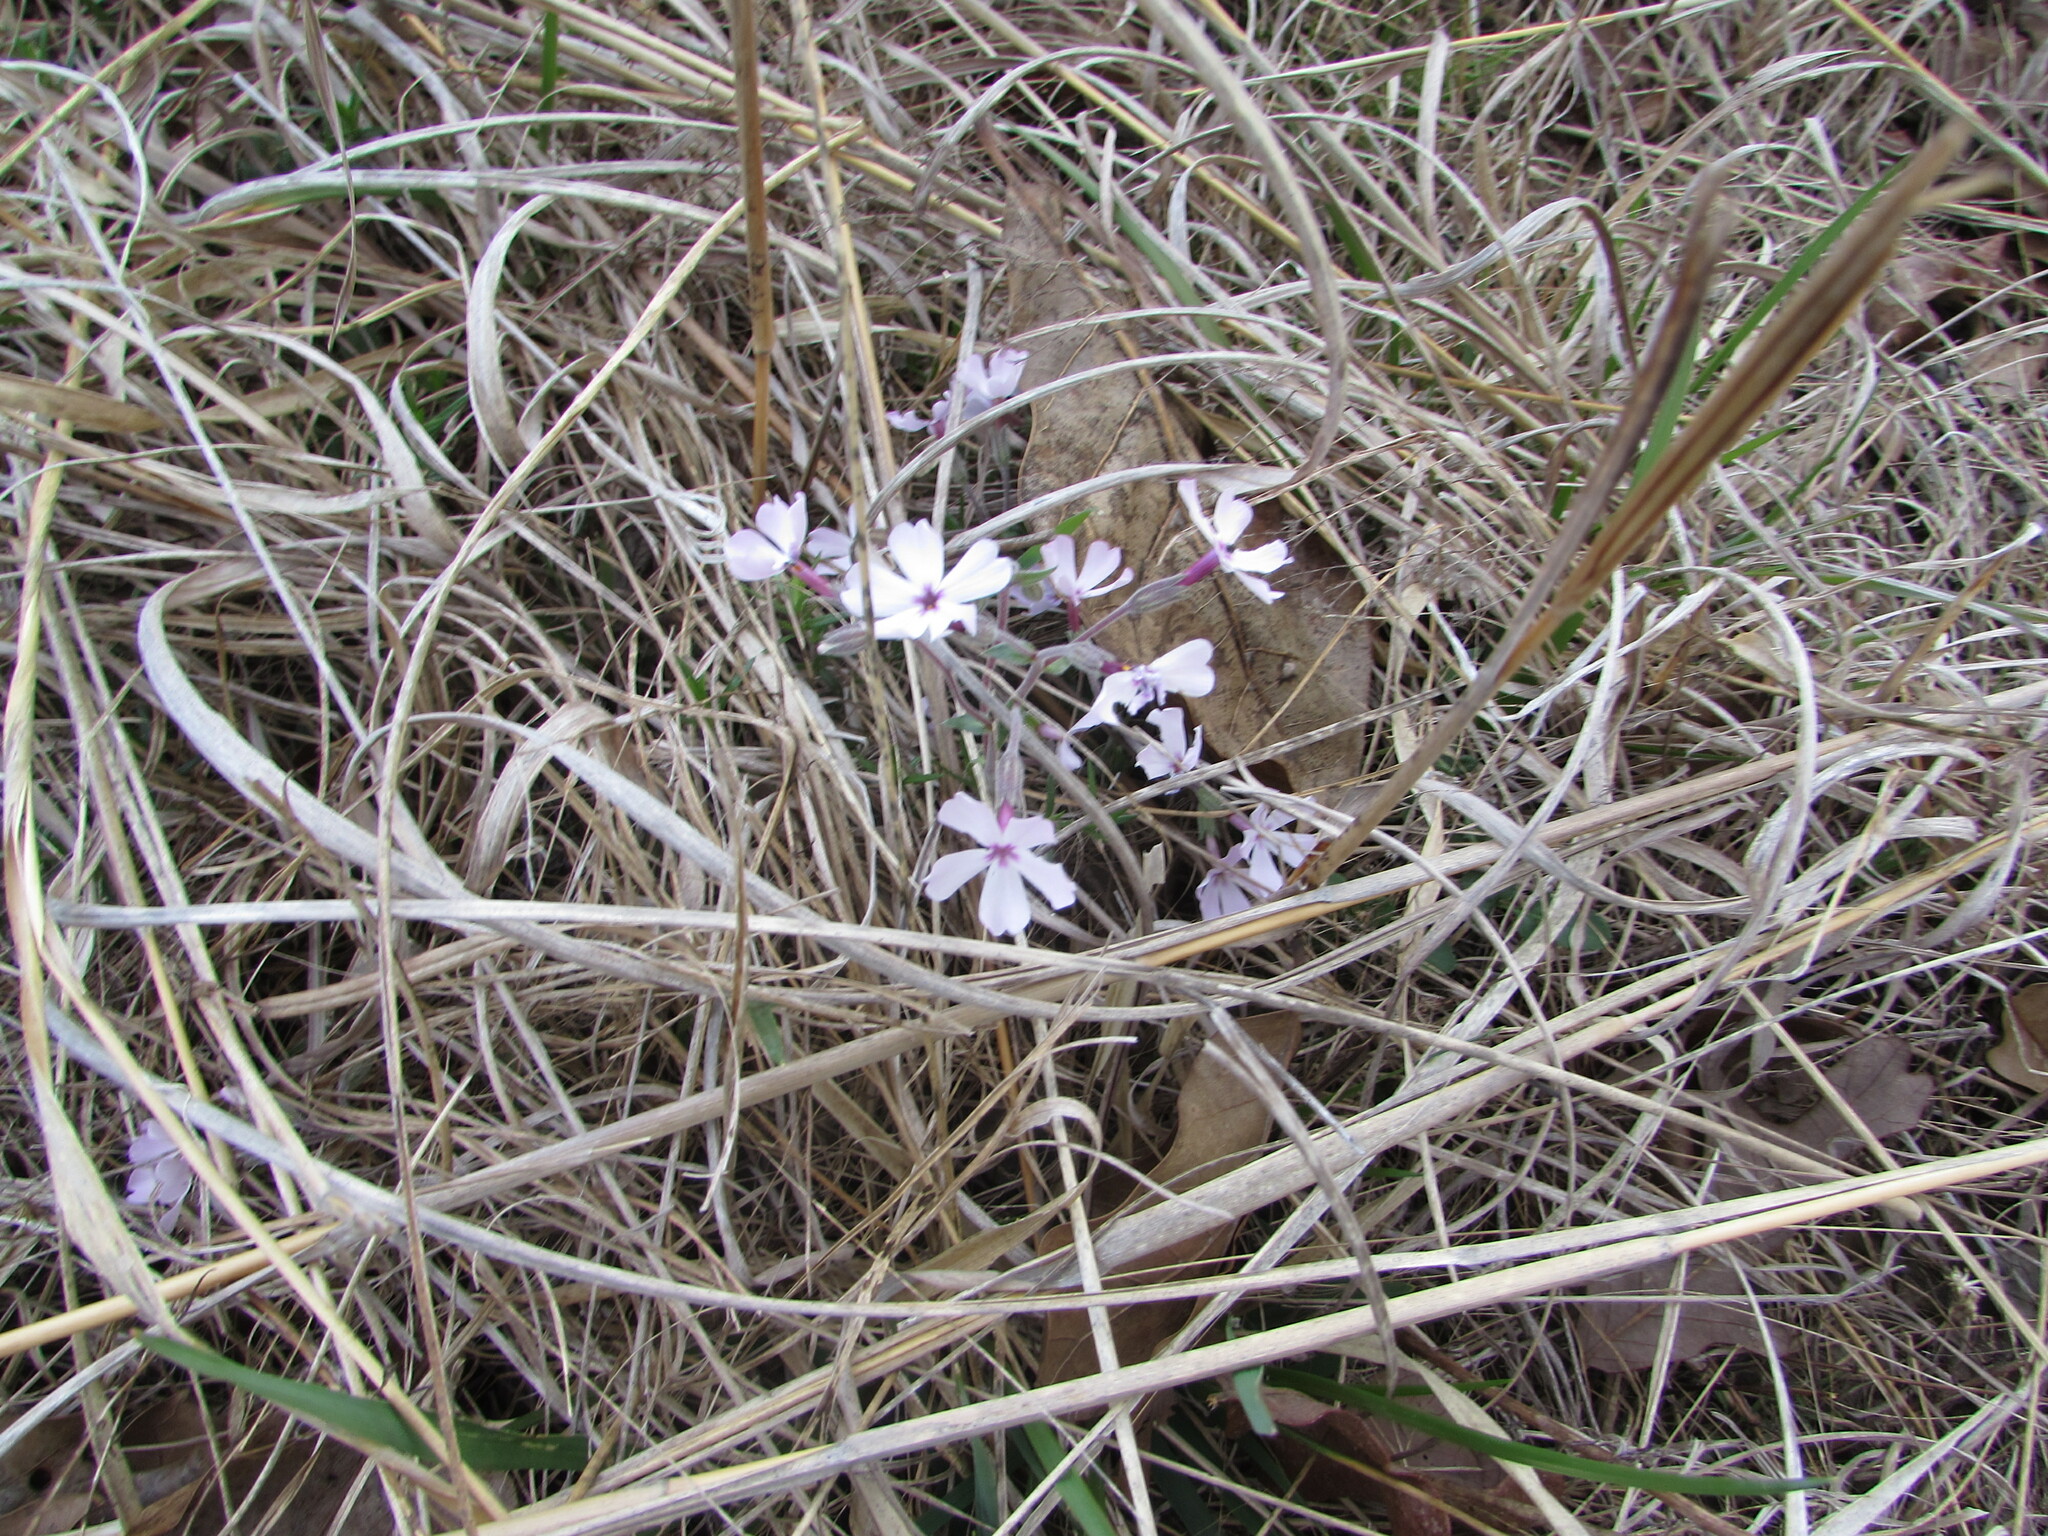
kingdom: Plantae
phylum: Tracheophyta
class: Magnoliopsida
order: Ericales
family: Polemoniaceae
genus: Phlox
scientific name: Phlox subulata
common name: Moss phlox
